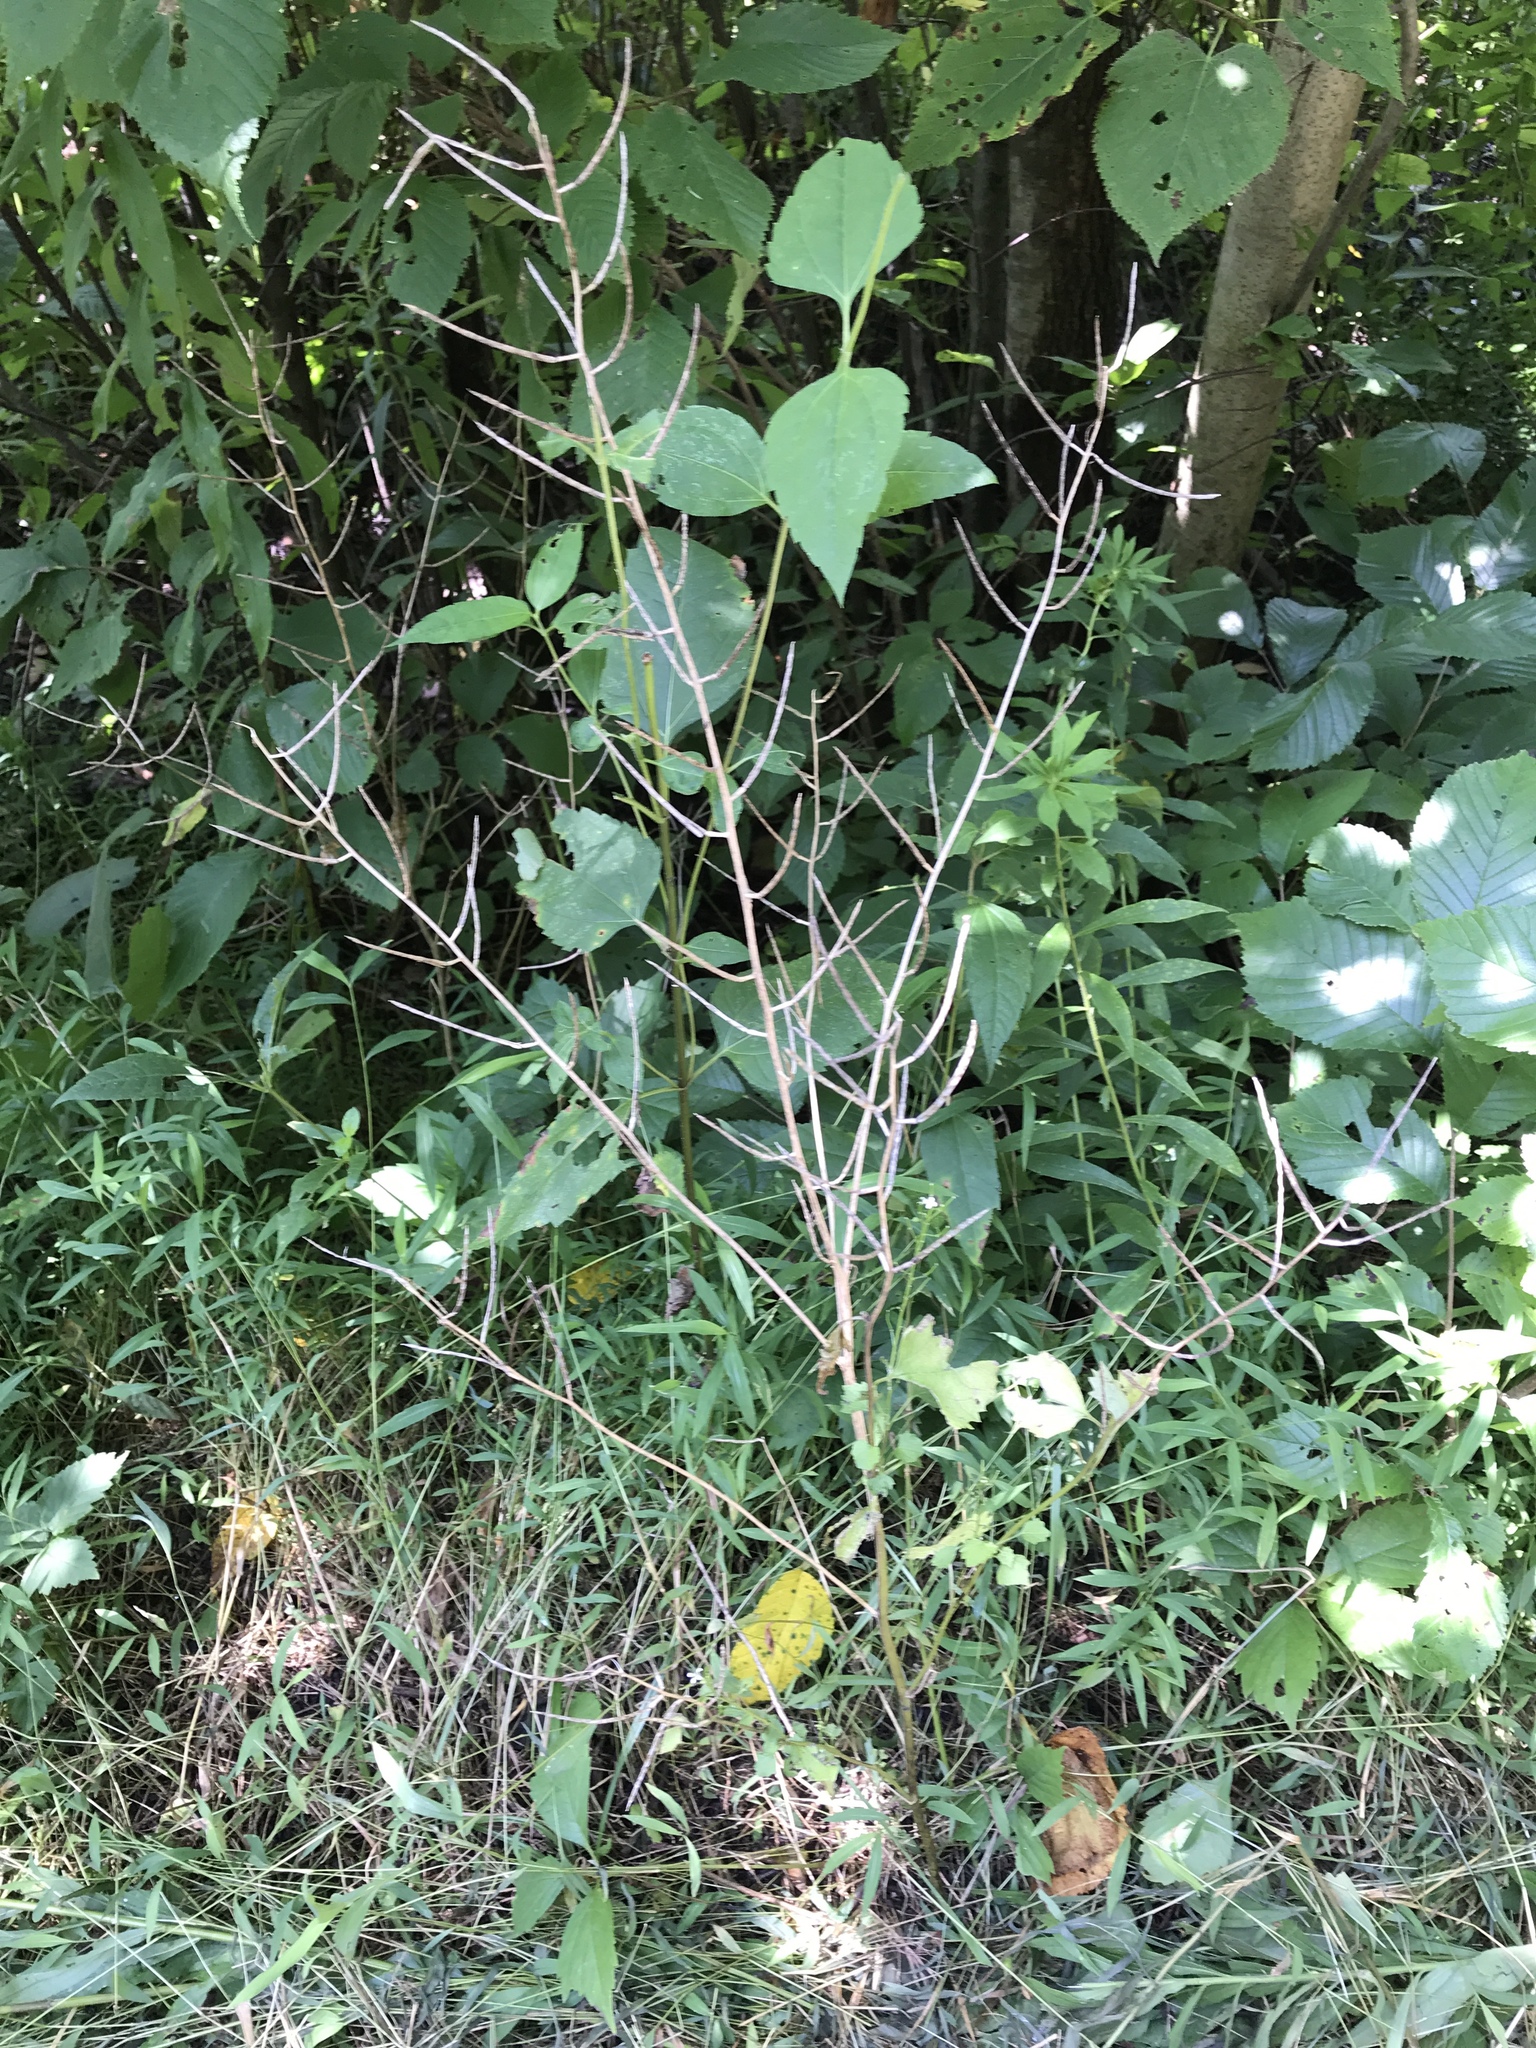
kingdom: Plantae
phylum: Tracheophyta
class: Magnoliopsida
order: Brassicales
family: Brassicaceae
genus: Alliaria
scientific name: Alliaria petiolata
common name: Garlic mustard
